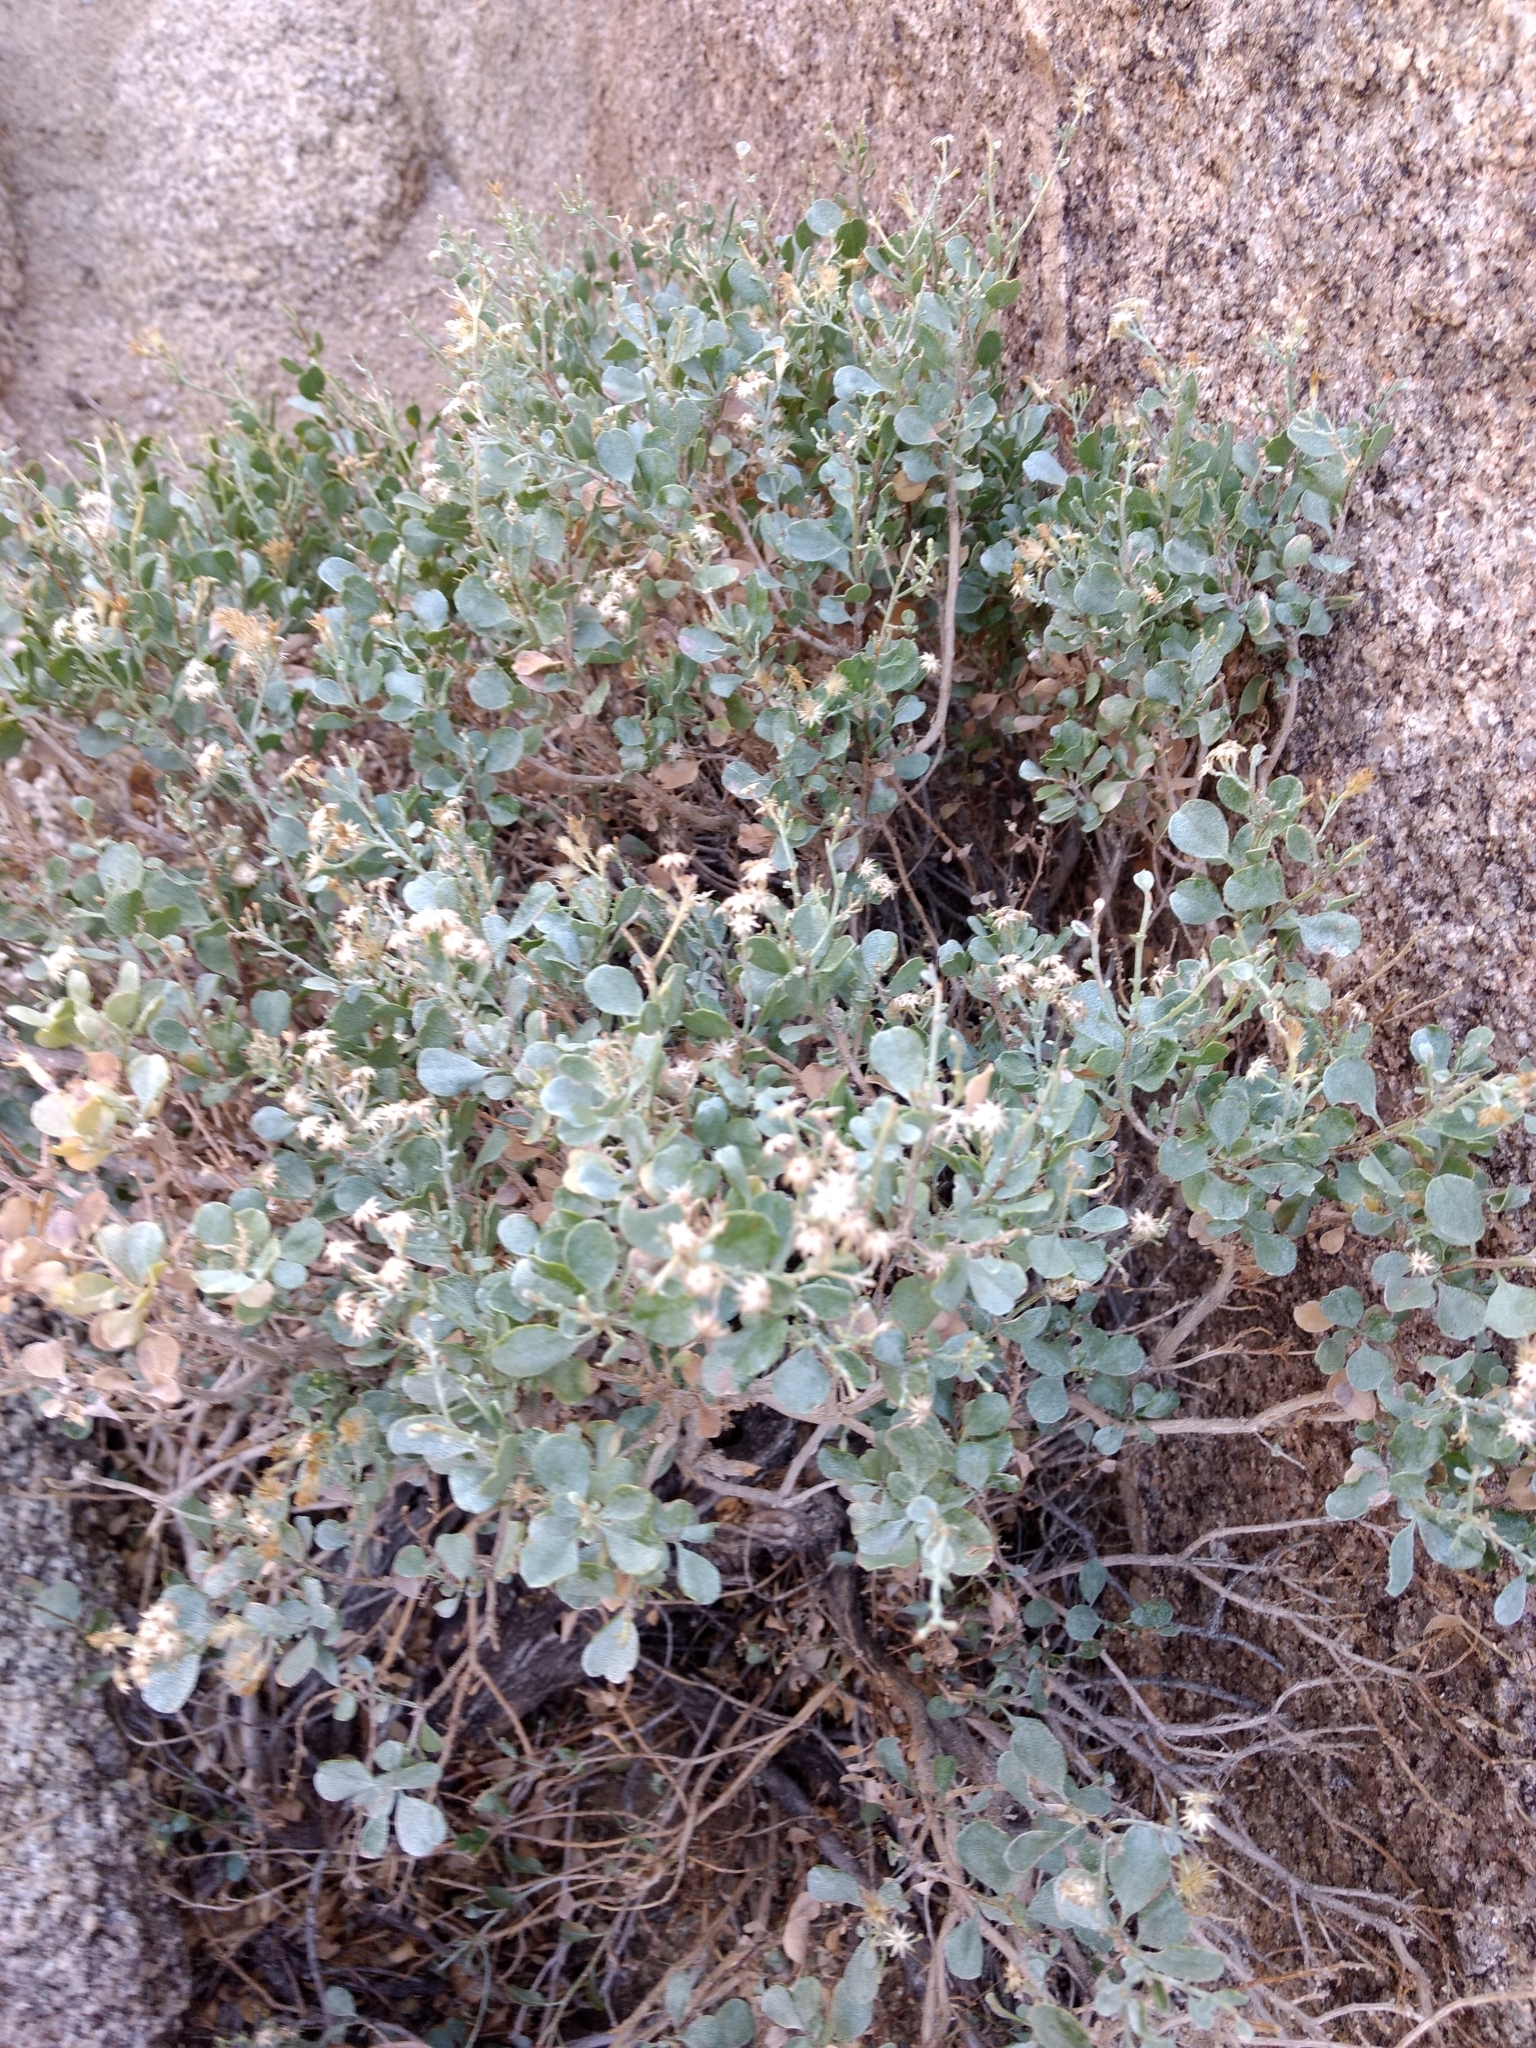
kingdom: Plantae
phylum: Tracheophyta
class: Magnoliopsida
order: Asterales
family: Asteraceae
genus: Ericameria
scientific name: Ericameria cuneata
